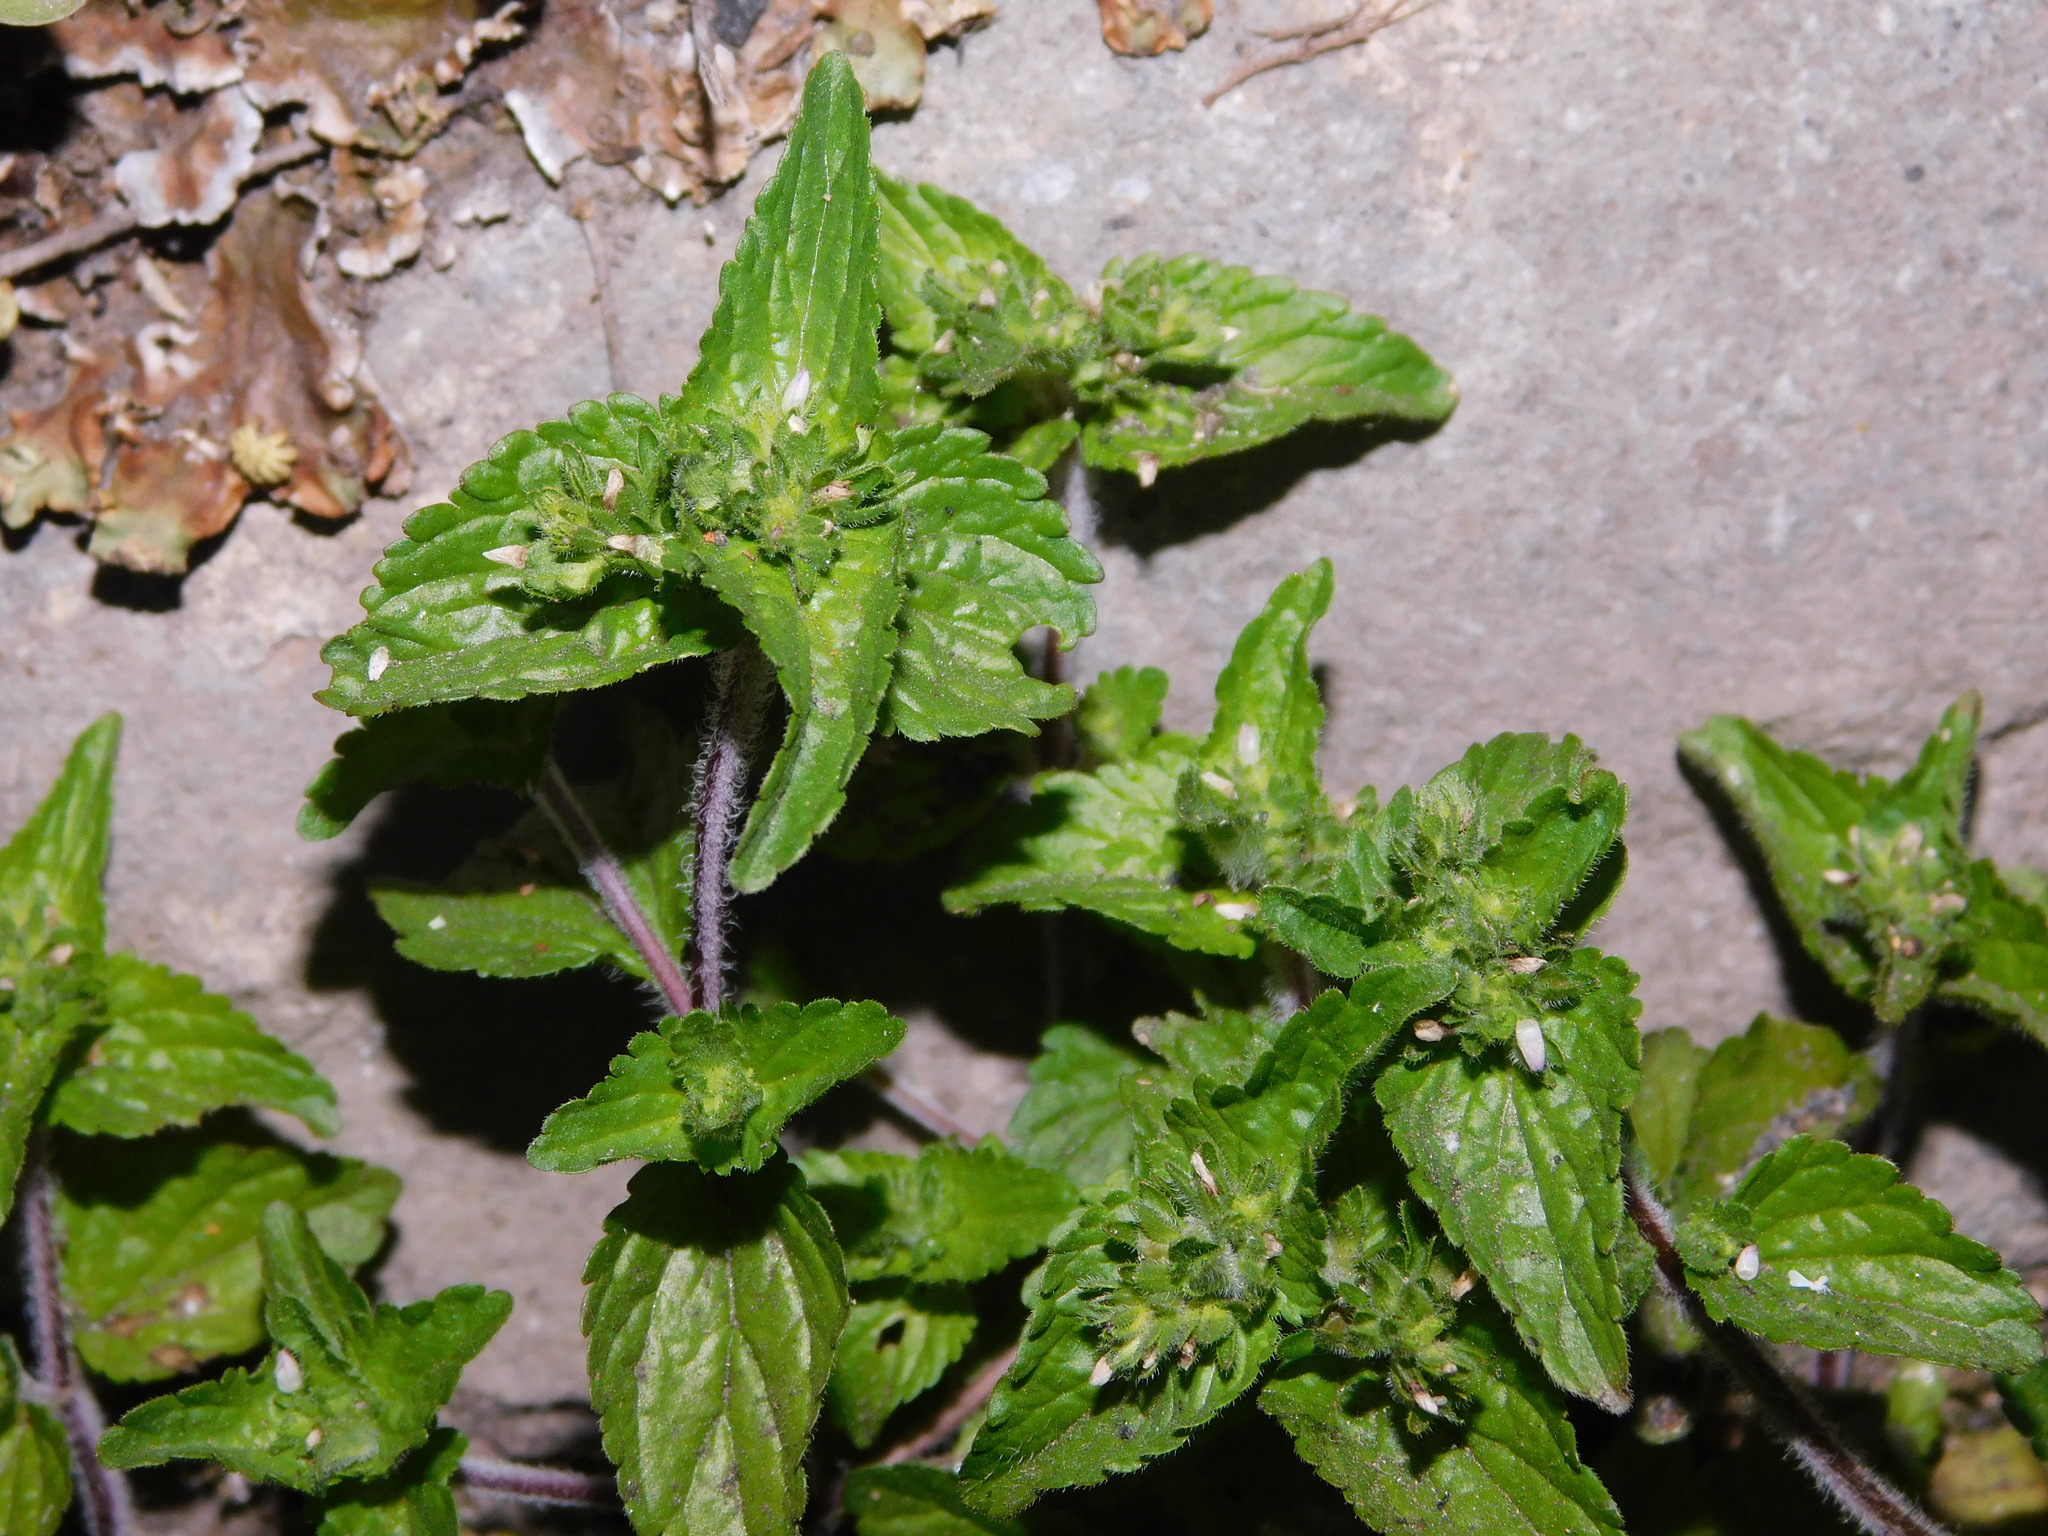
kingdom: Plantae
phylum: Tracheophyta
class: Magnoliopsida
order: Lamiales
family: Plantaginaceae
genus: Veronica
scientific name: Veronica javanica
